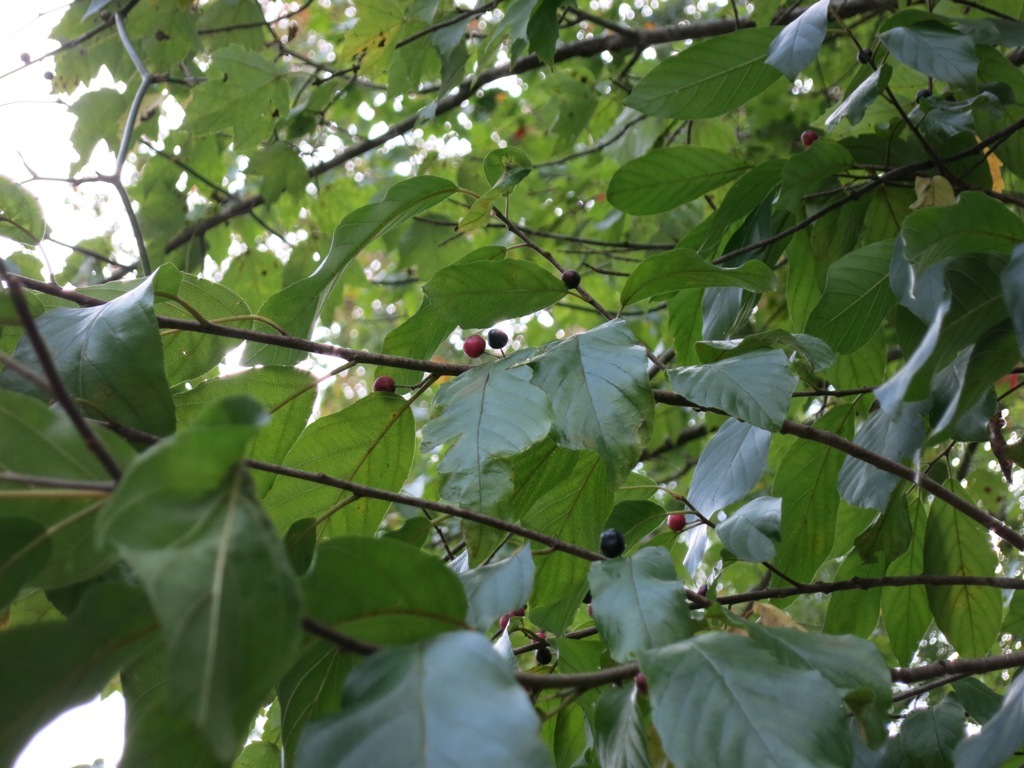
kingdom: Plantae
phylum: Tracheophyta
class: Magnoliopsida
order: Rosales
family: Rhamnaceae
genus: Frangula
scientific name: Frangula caroliniana
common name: Carolina buckthorn
